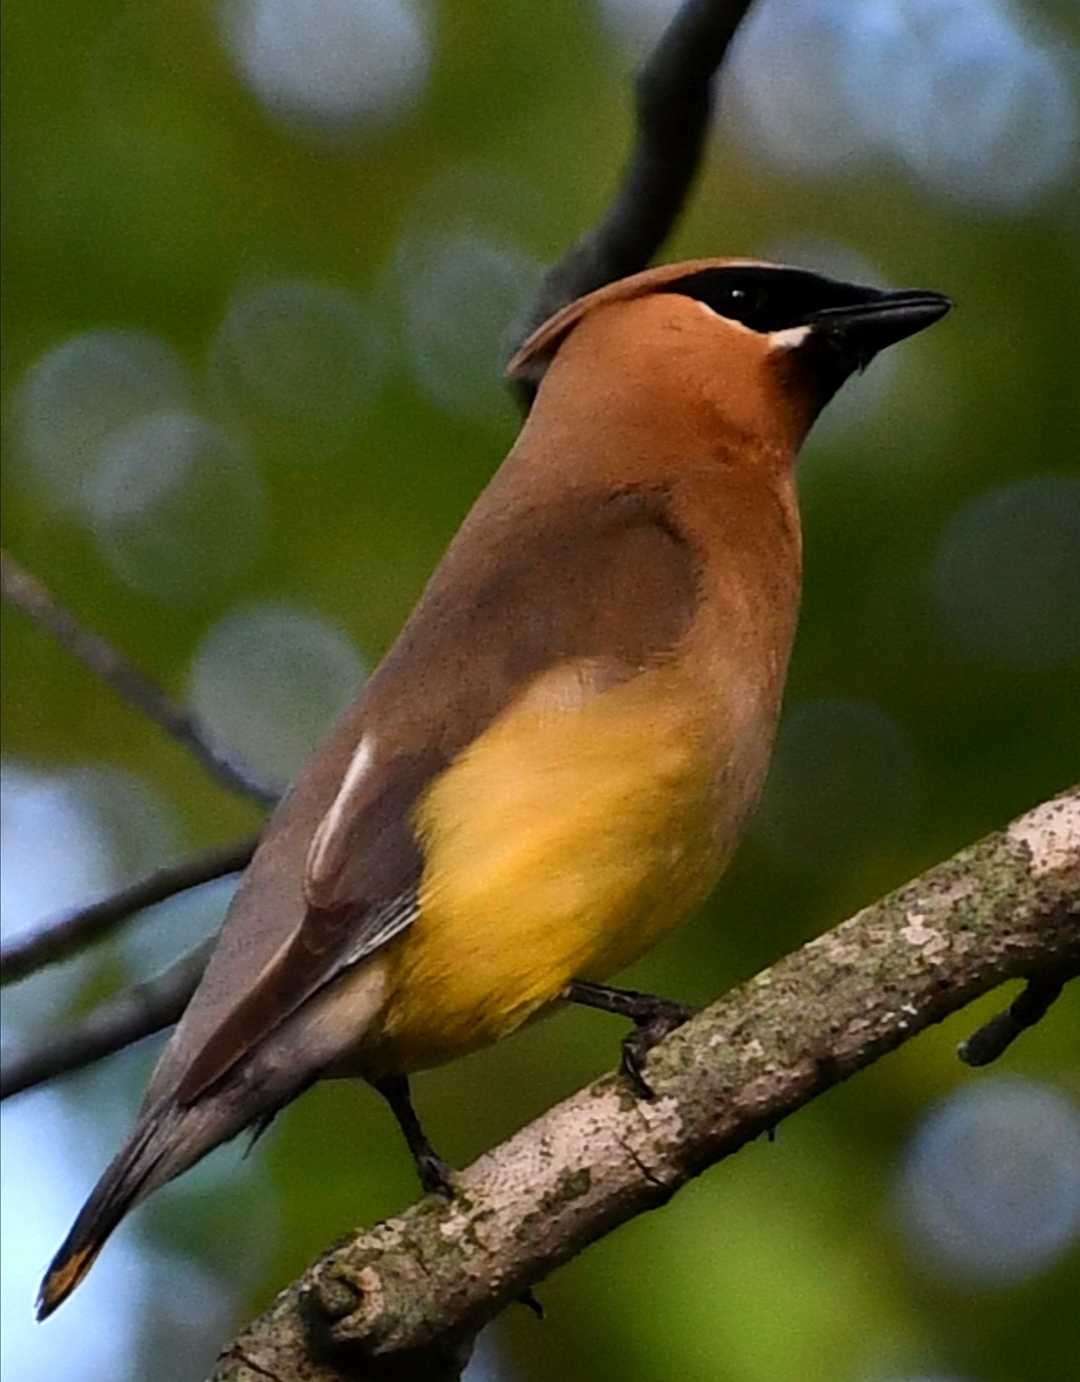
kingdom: Animalia
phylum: Chordata
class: Aves
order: Passeriformes
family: Bombycillidae
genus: Bombycilla
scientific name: Bombycilla cedrorum
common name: Cedar waxwing
